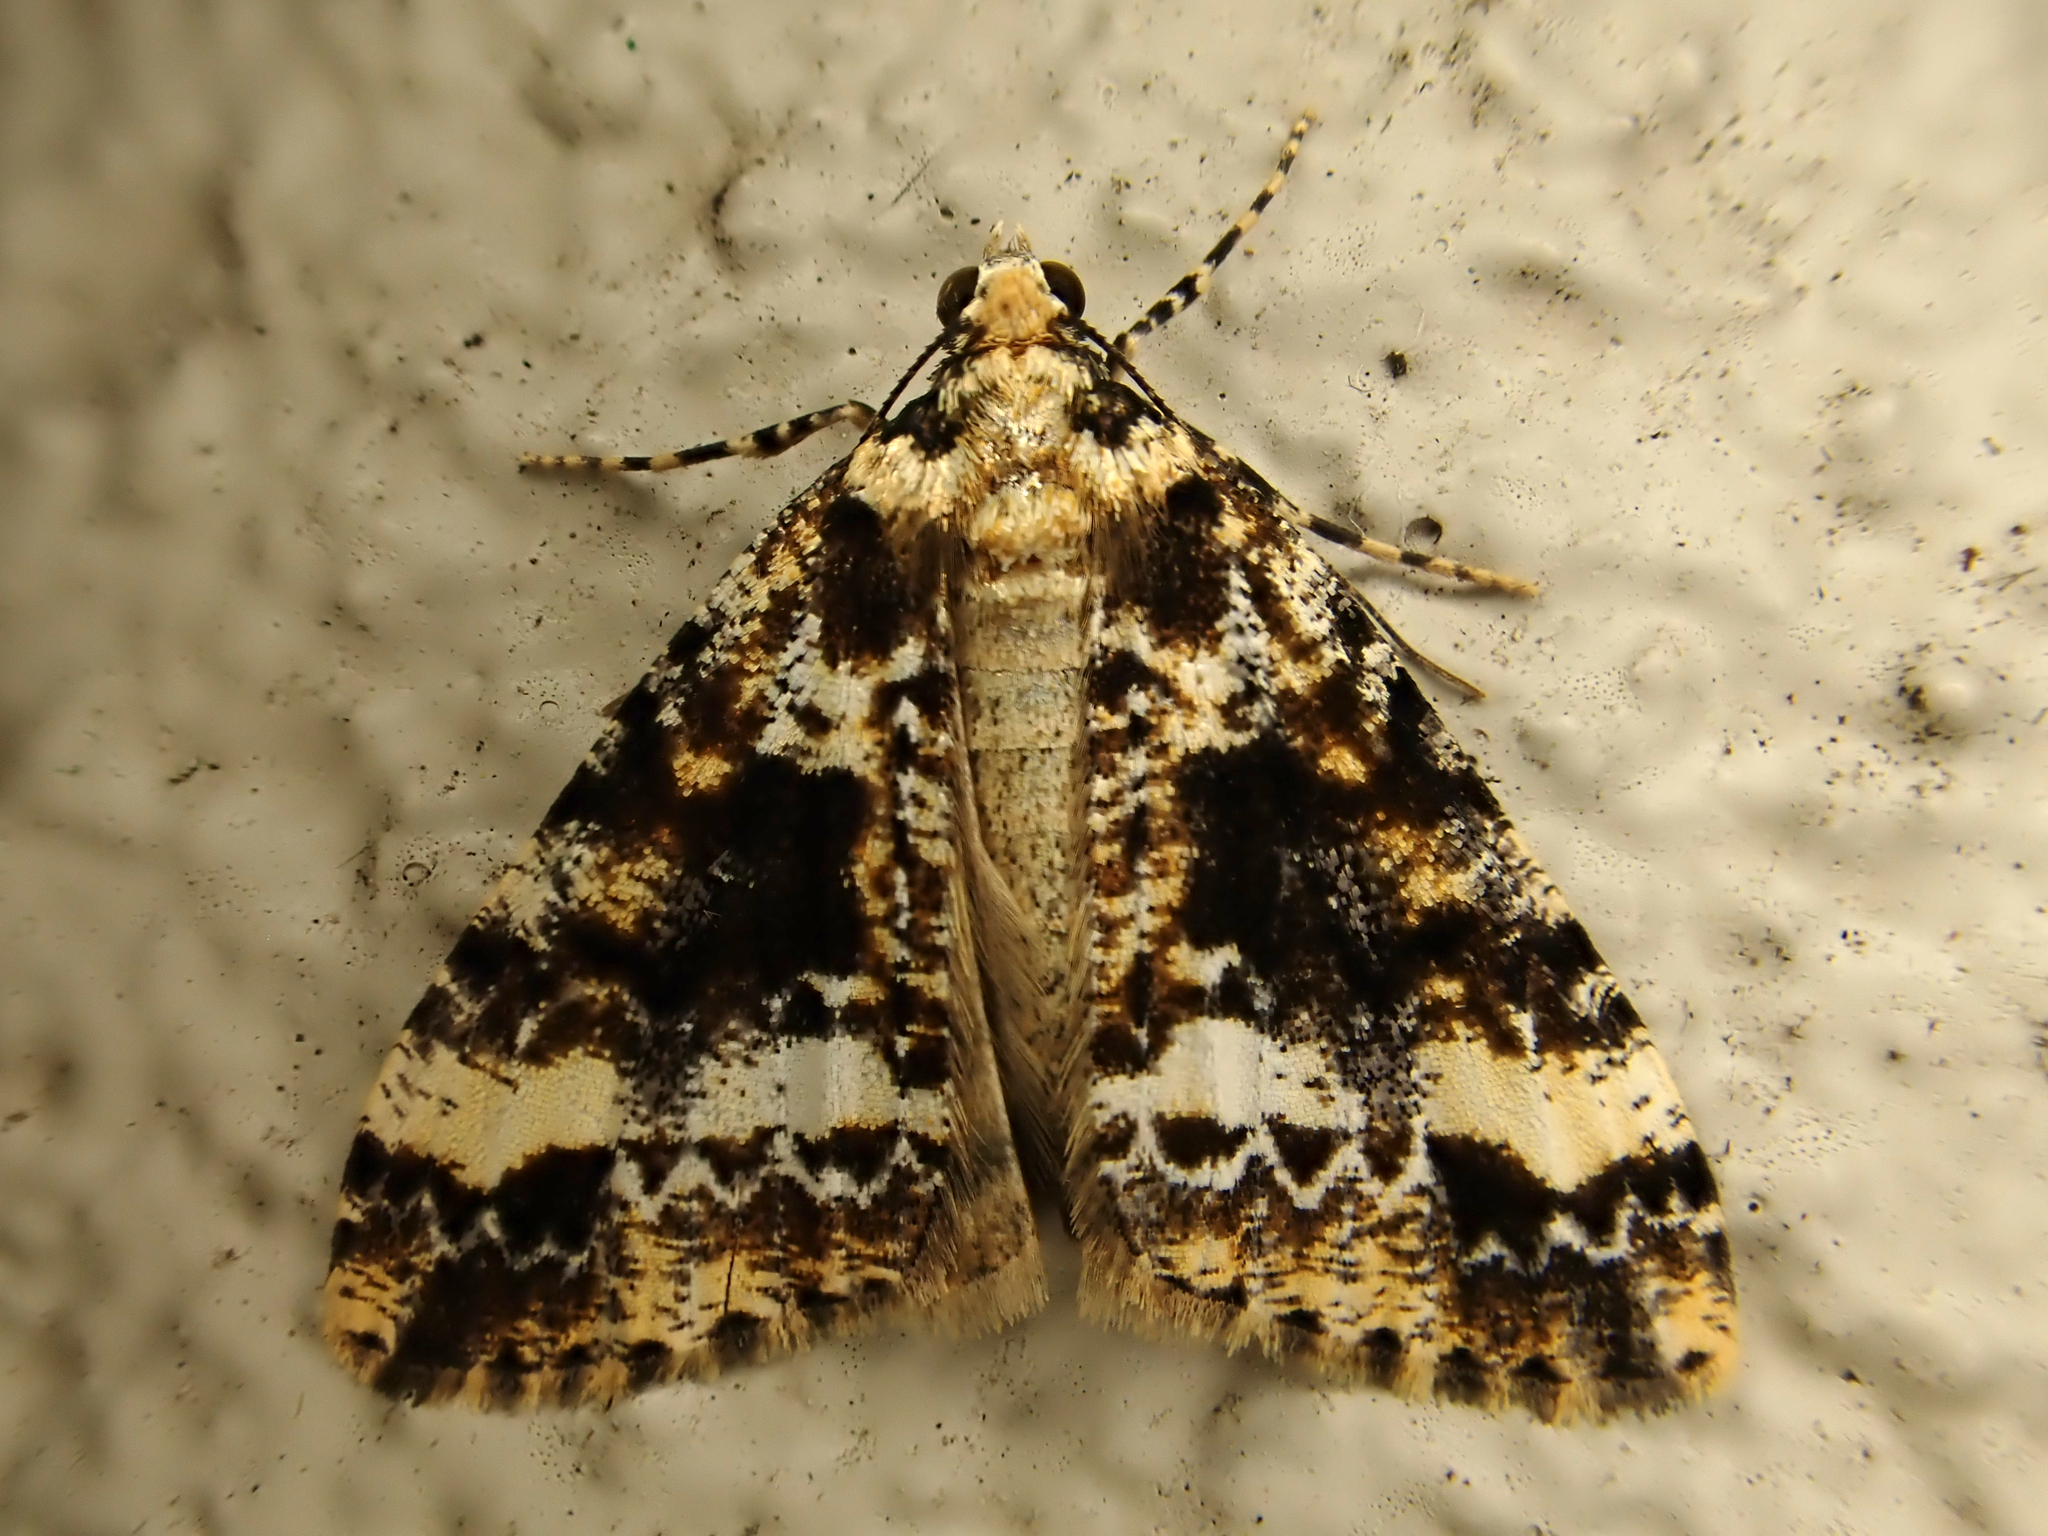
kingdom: Animalia
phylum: Arthropoda
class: Insecta
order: Lepidoptera
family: Geometridae
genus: Pseudocoremia
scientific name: Pseudocoremia leucelaea
